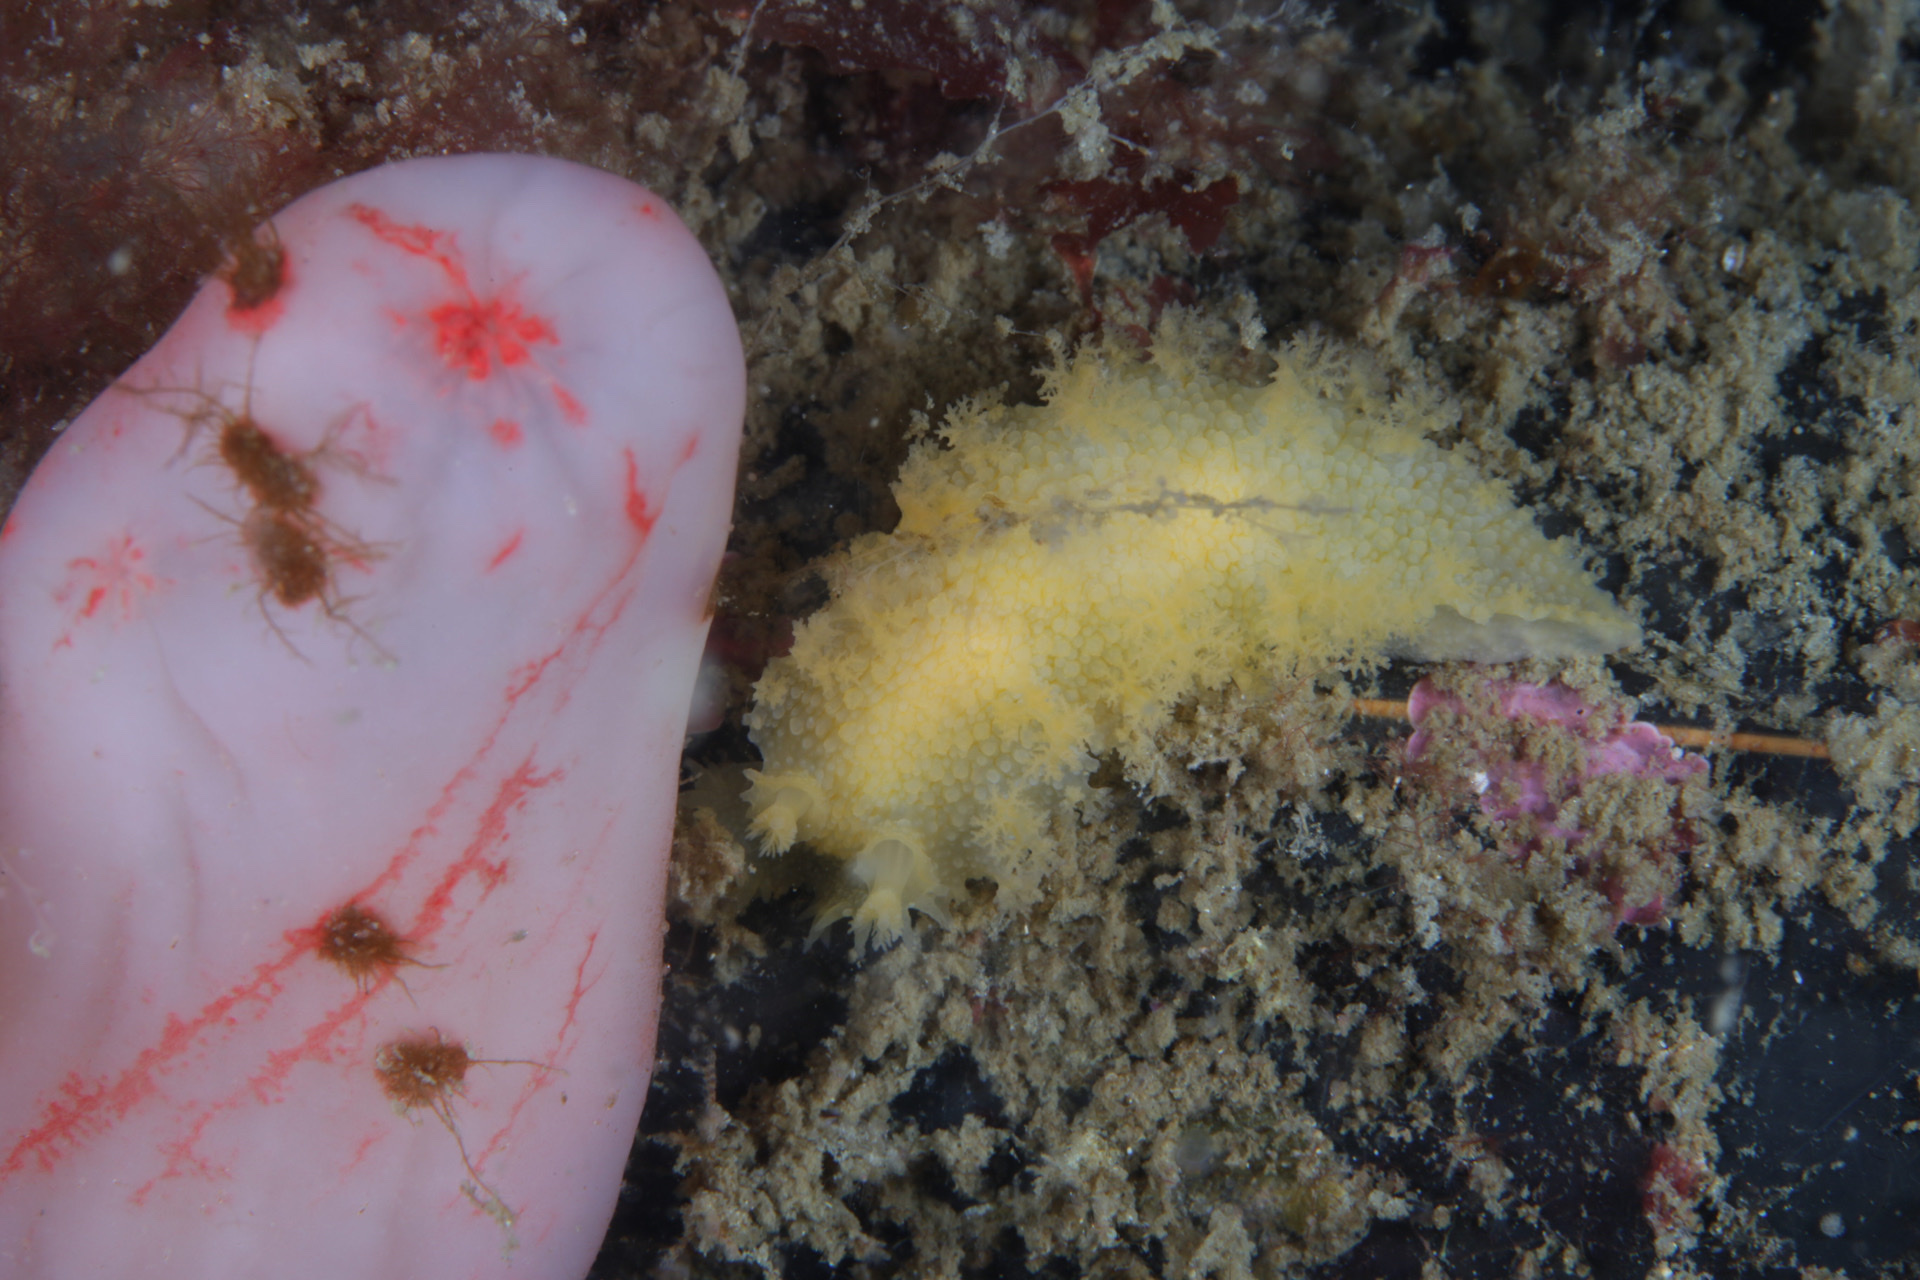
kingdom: Animalia
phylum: Mollusca
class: Gastropoda
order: Nudibranchia
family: Tritoniidae
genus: Tritonia
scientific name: Tritonia hombergii
